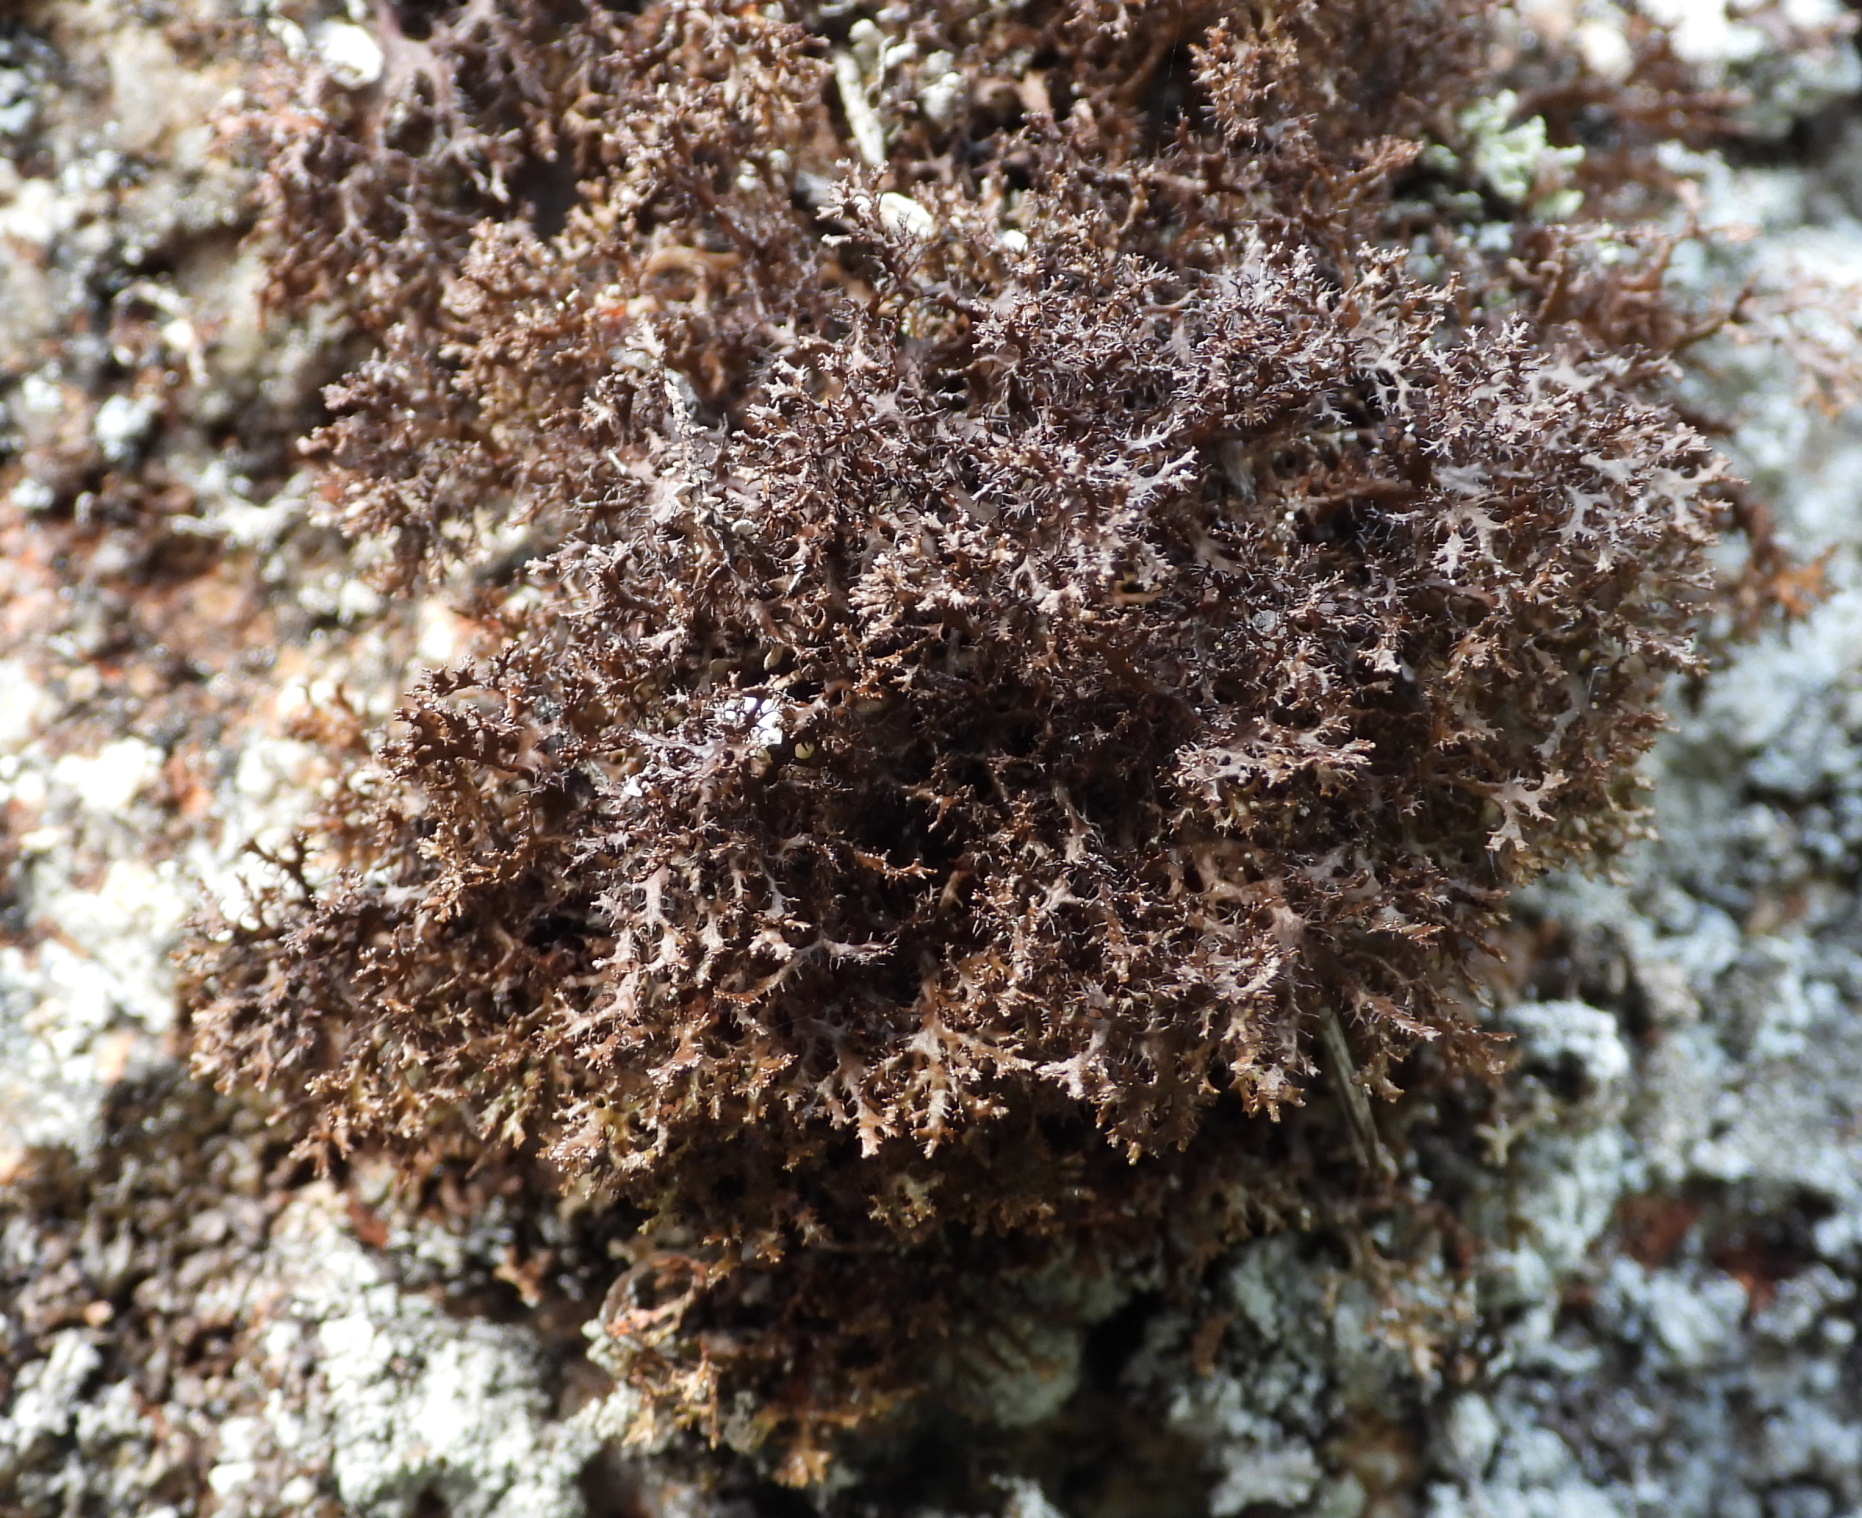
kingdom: Fungi
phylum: Ascomycota
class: Lecanoromycetes
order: Lecanorales
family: Parmeliaceae
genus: Cetraria
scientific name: Cetraria odontella
